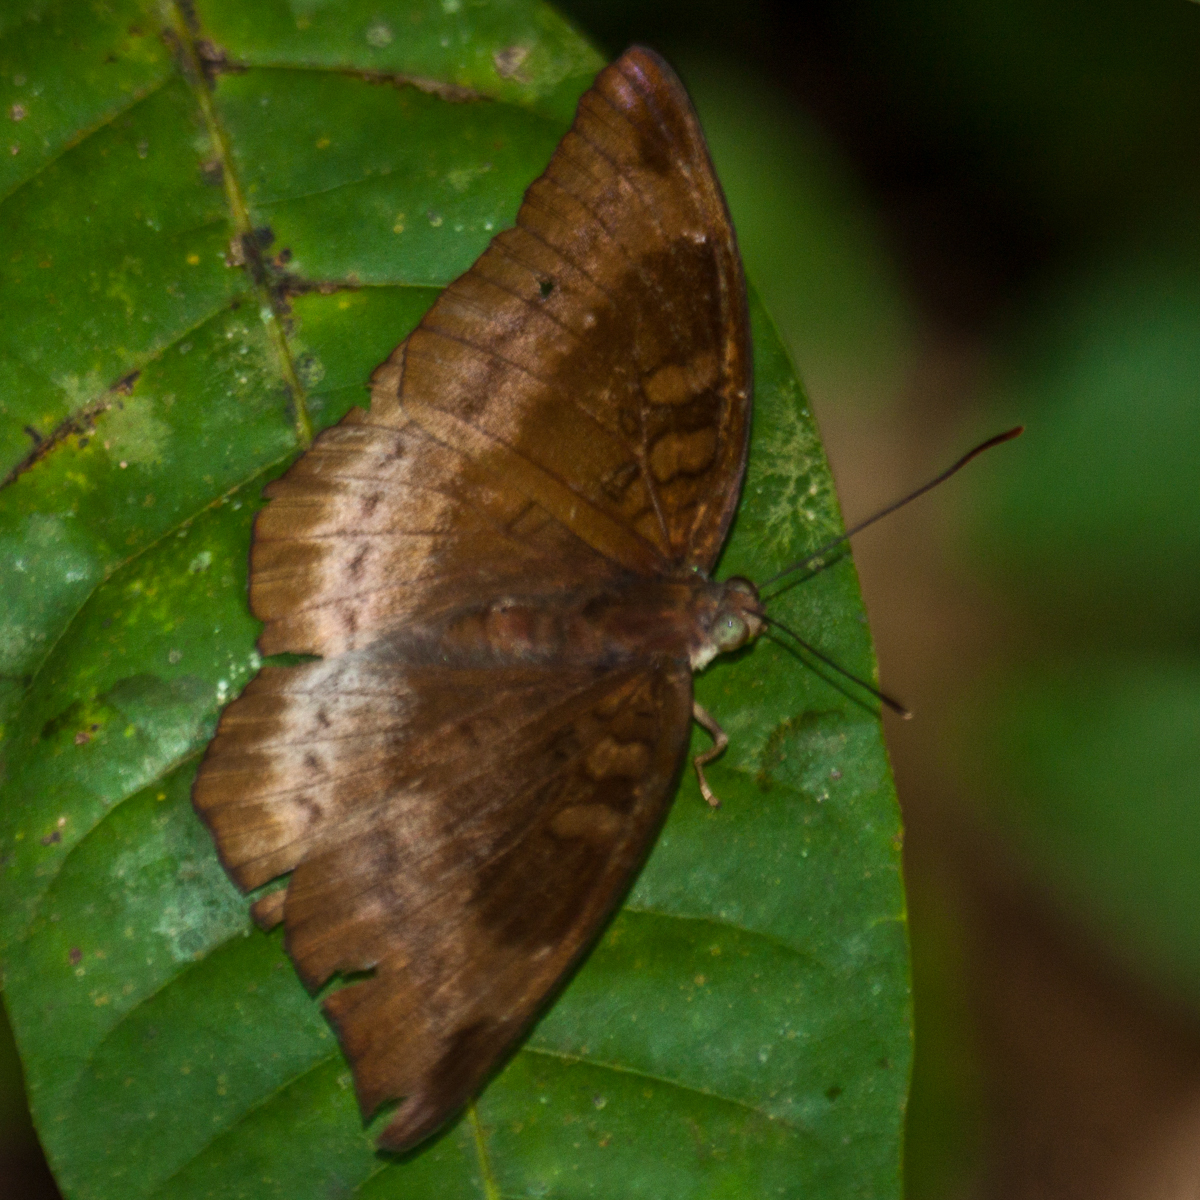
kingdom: Animalia
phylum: Arthropoda
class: Insecta
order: Lepidoptera
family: Nymphalidae
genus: Euthalia
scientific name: Euthalia monina
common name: Powdered baron
